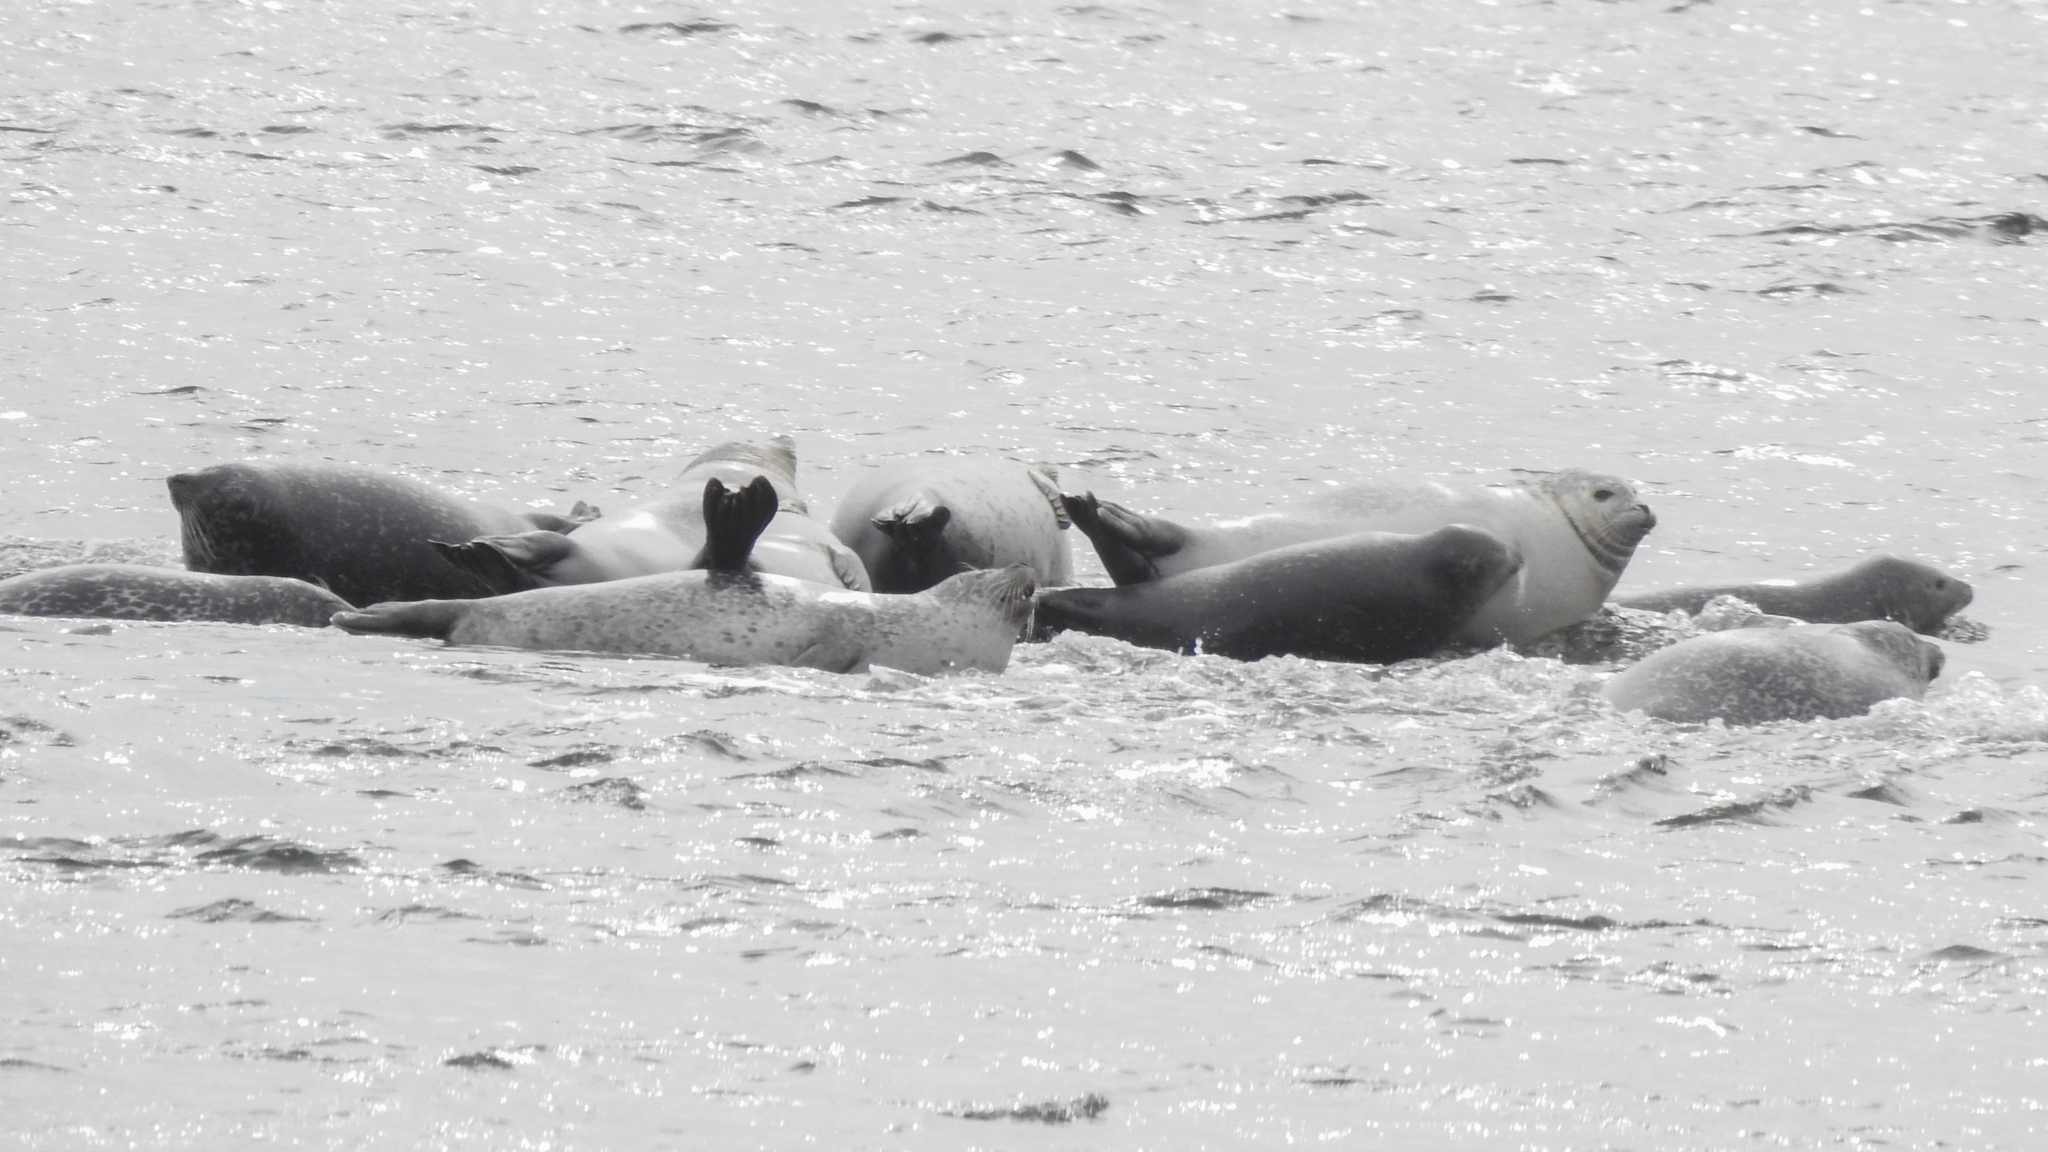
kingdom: Animalia
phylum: Chordata
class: Mammalia
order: Carnivora
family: Phocidae
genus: Phoca
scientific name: Phoca vitulina
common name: Harbor seal
